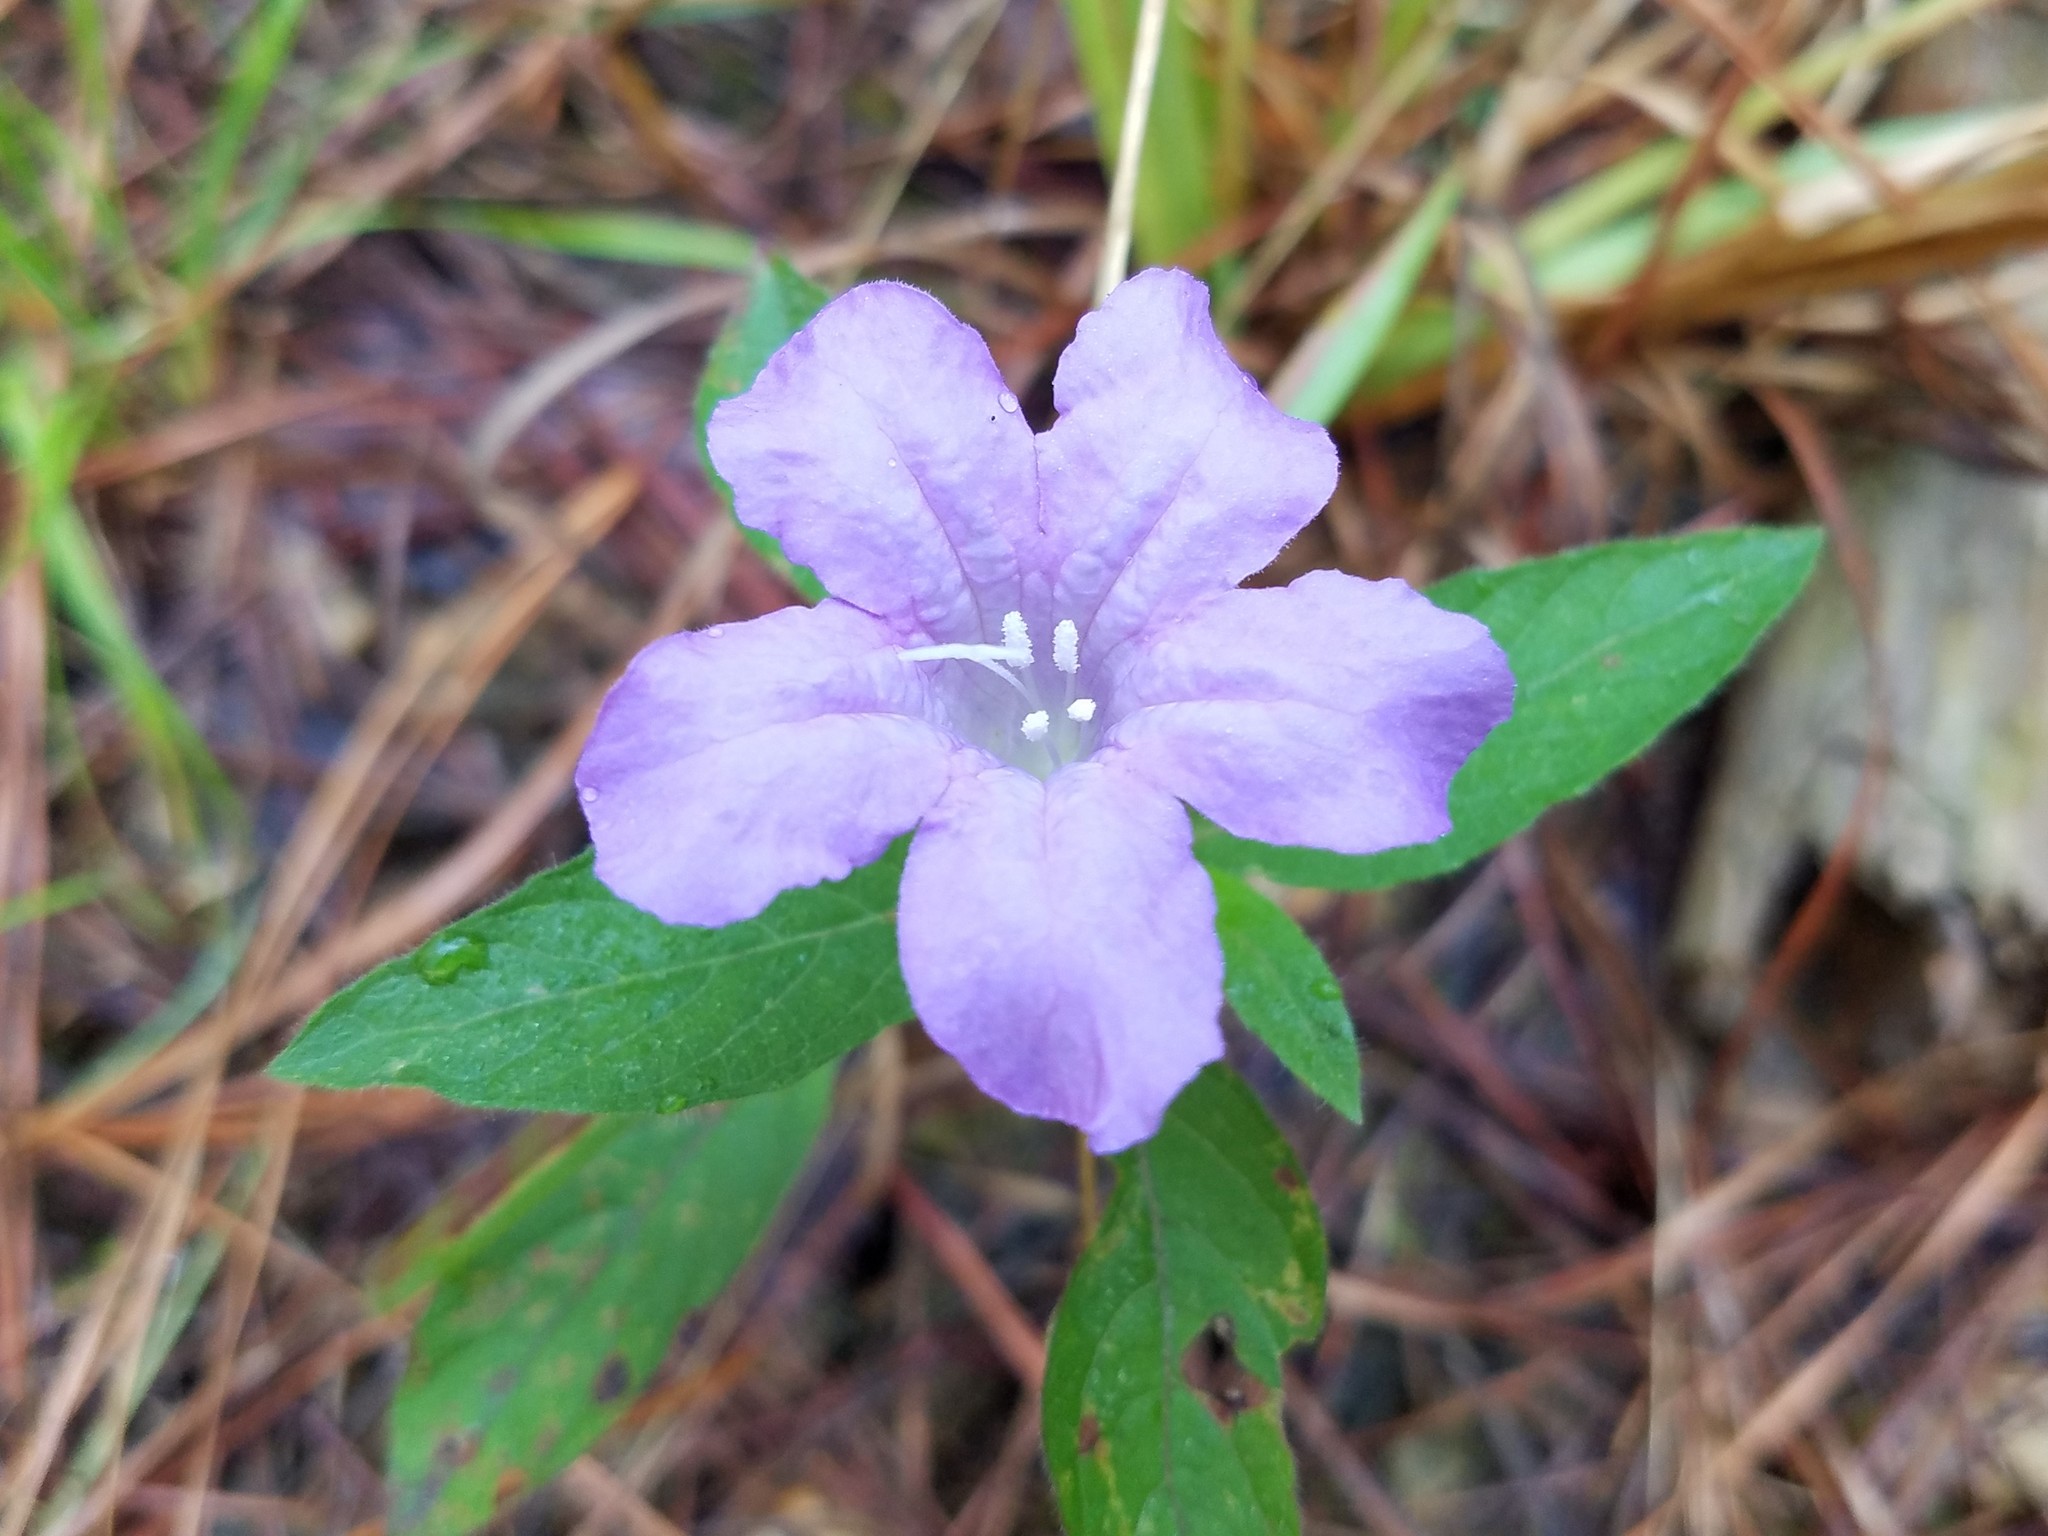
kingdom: Plantae
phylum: Tracheophyta
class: Magnoliopsida
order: Lamiales
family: Acanthaceae
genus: Ruellia
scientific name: Ruellia caroliniensis
